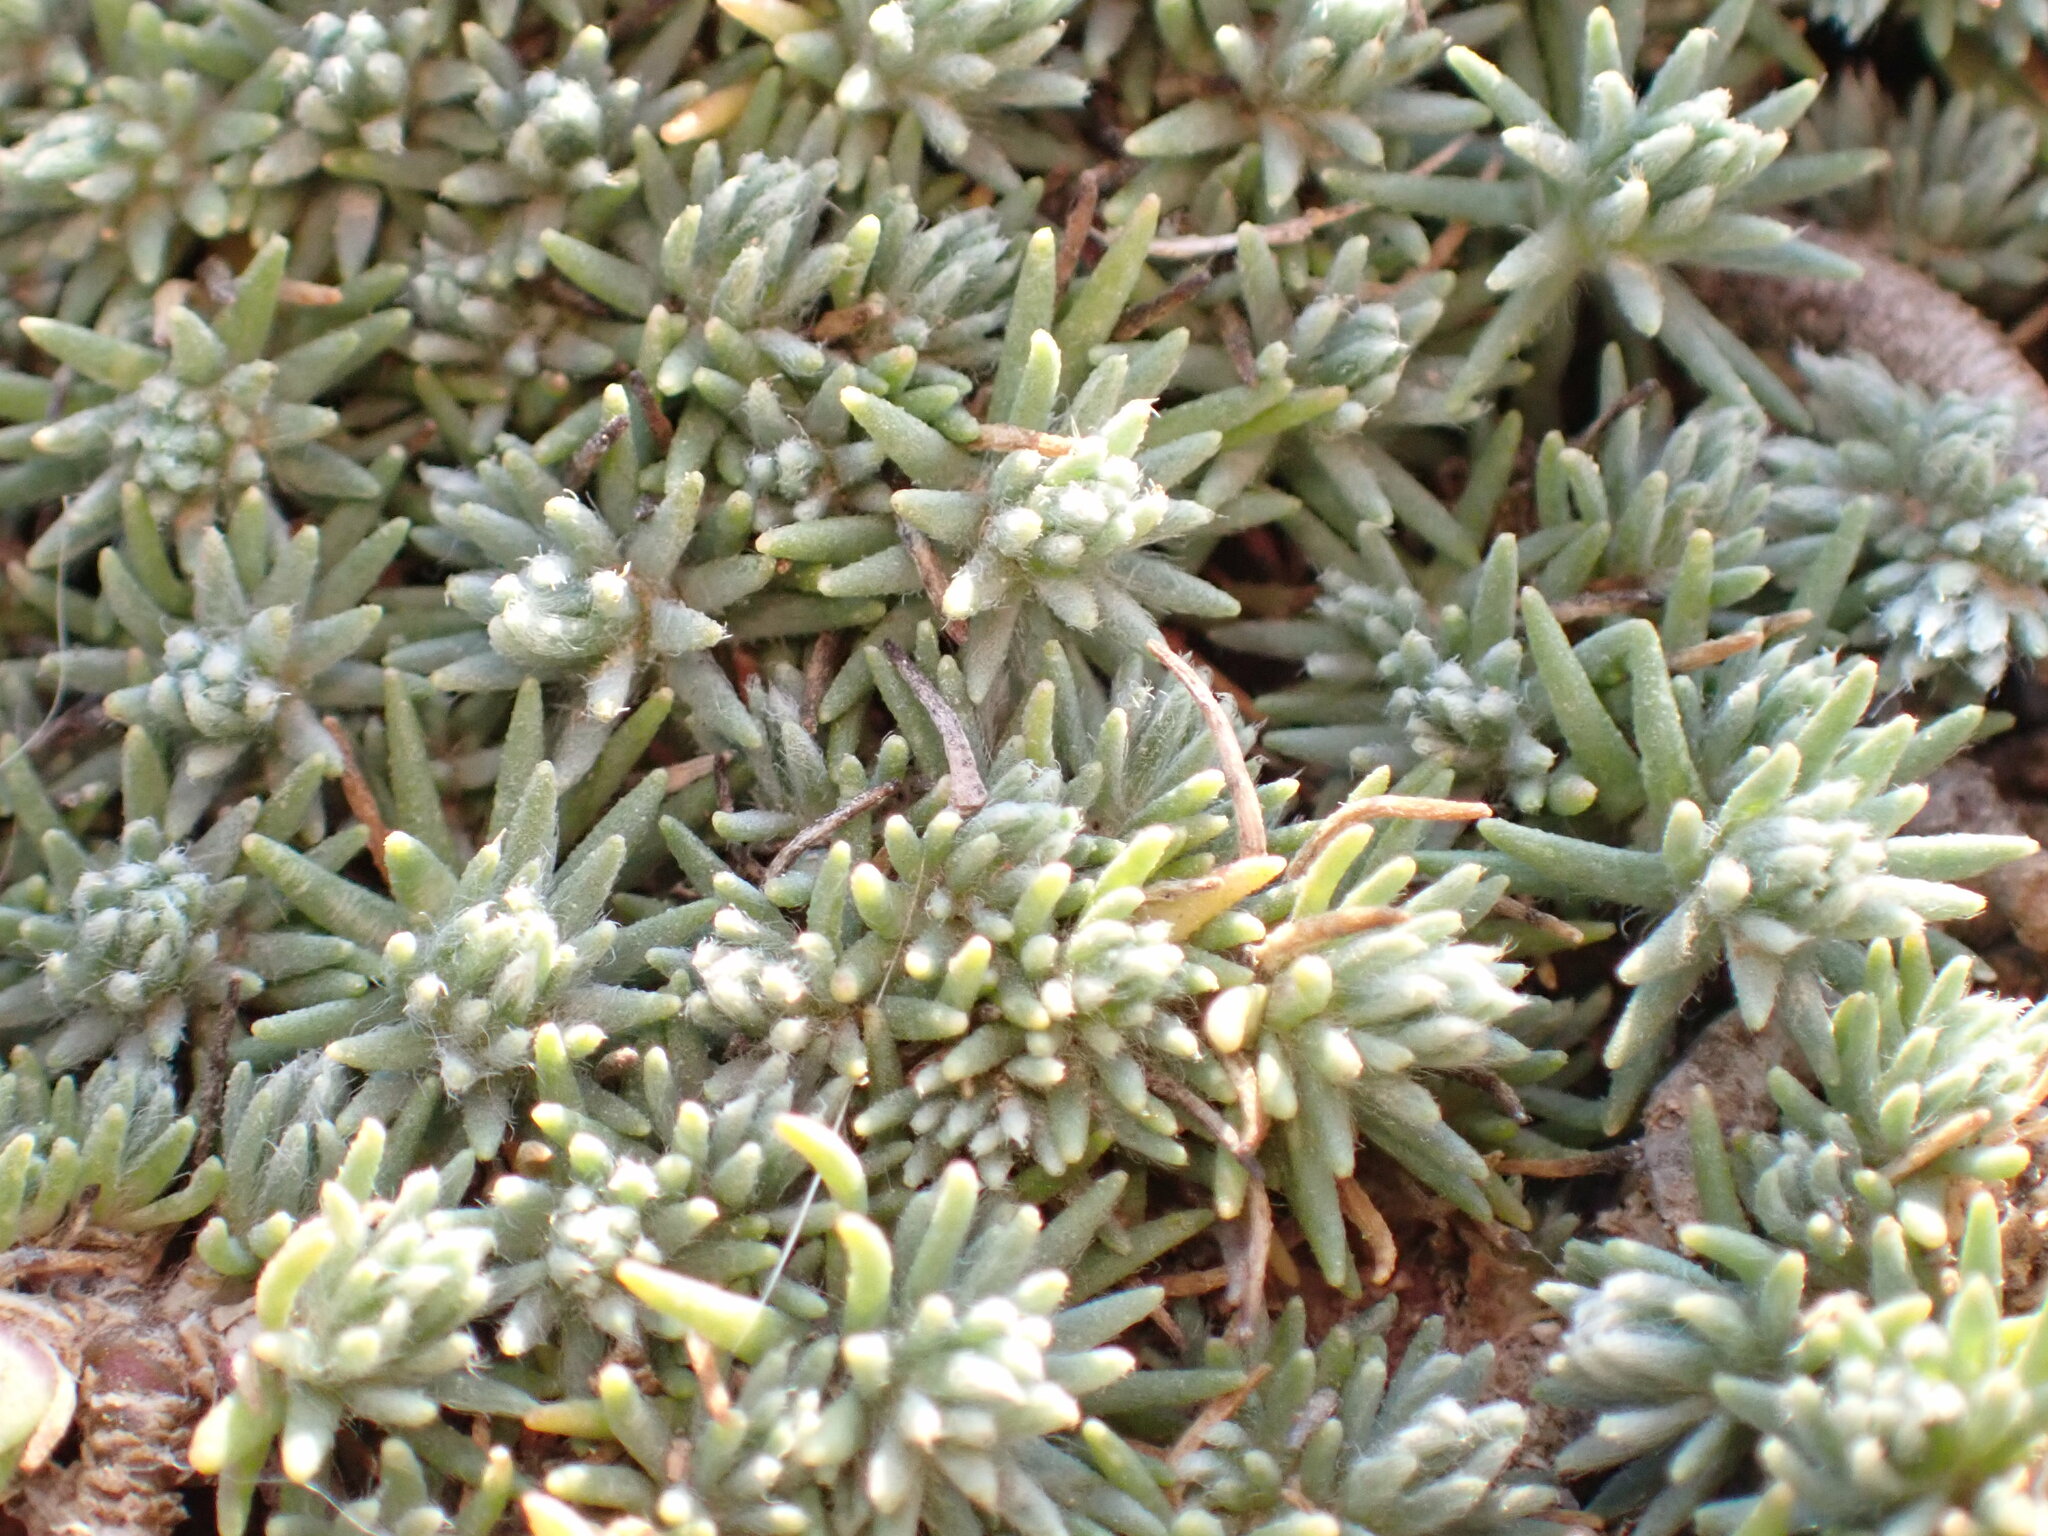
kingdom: Plantae
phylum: Tracheophyta
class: Magnoliopsida
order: Caryophyllales
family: Amaranthaceae
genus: Camphorosma
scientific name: Camphorosma monspeliaca
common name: Camphorfume
